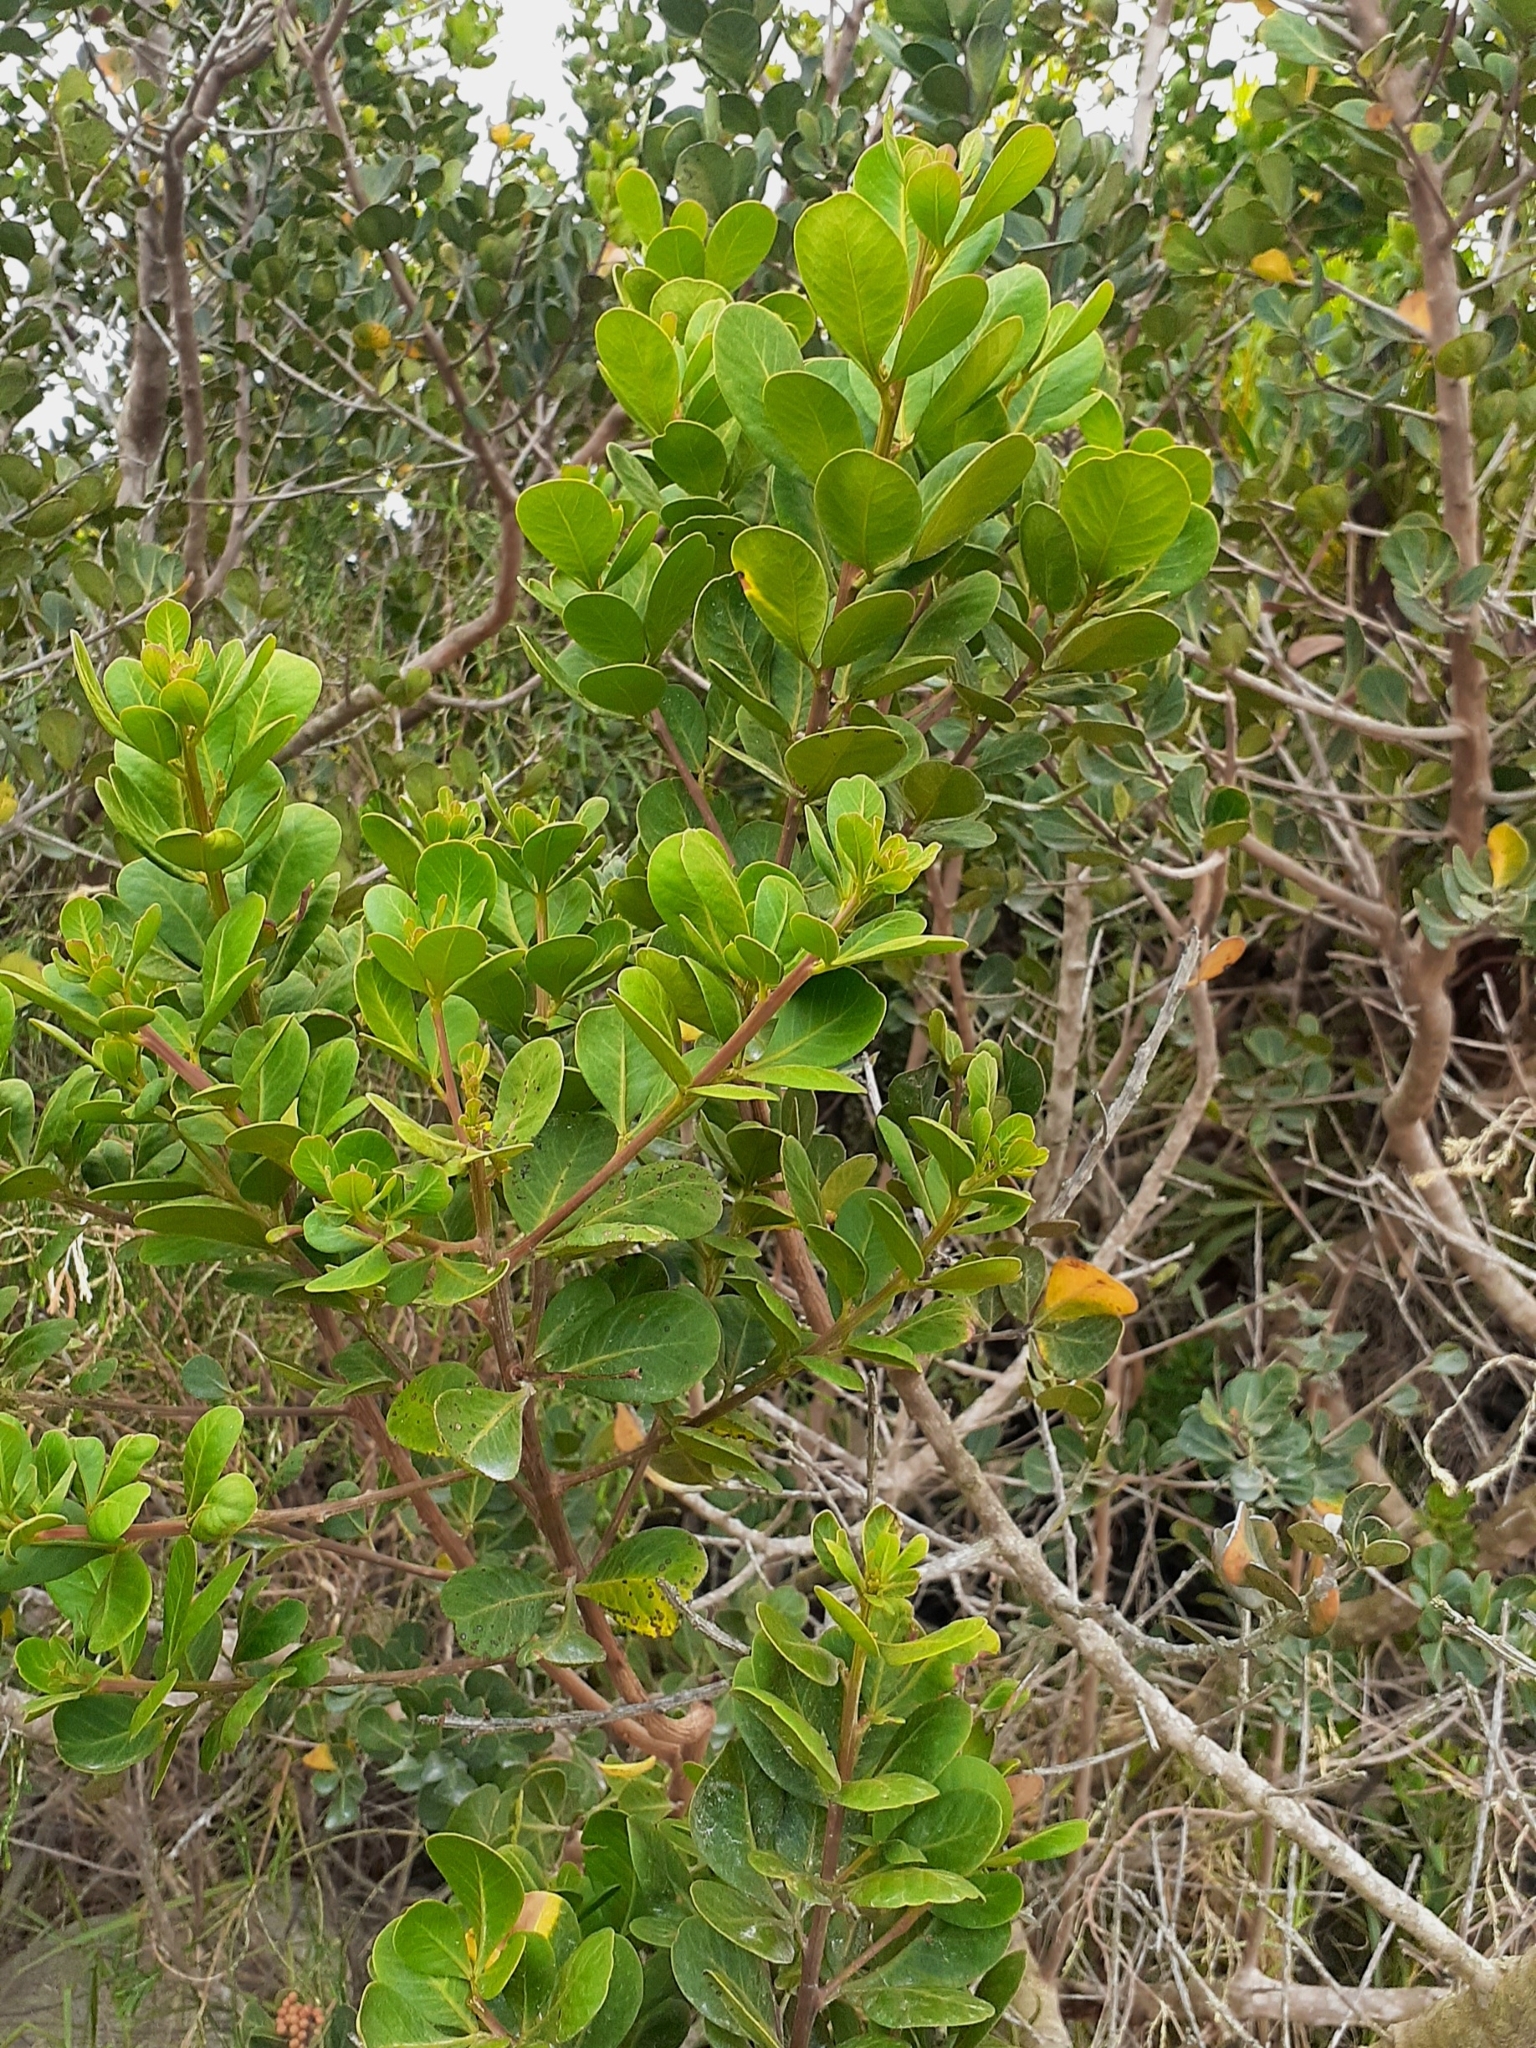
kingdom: Plantae
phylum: Tracheophyta
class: Magnoliopsida
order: Sapindales
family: Anacardiaceae
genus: Searsia
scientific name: Searsia lucida
